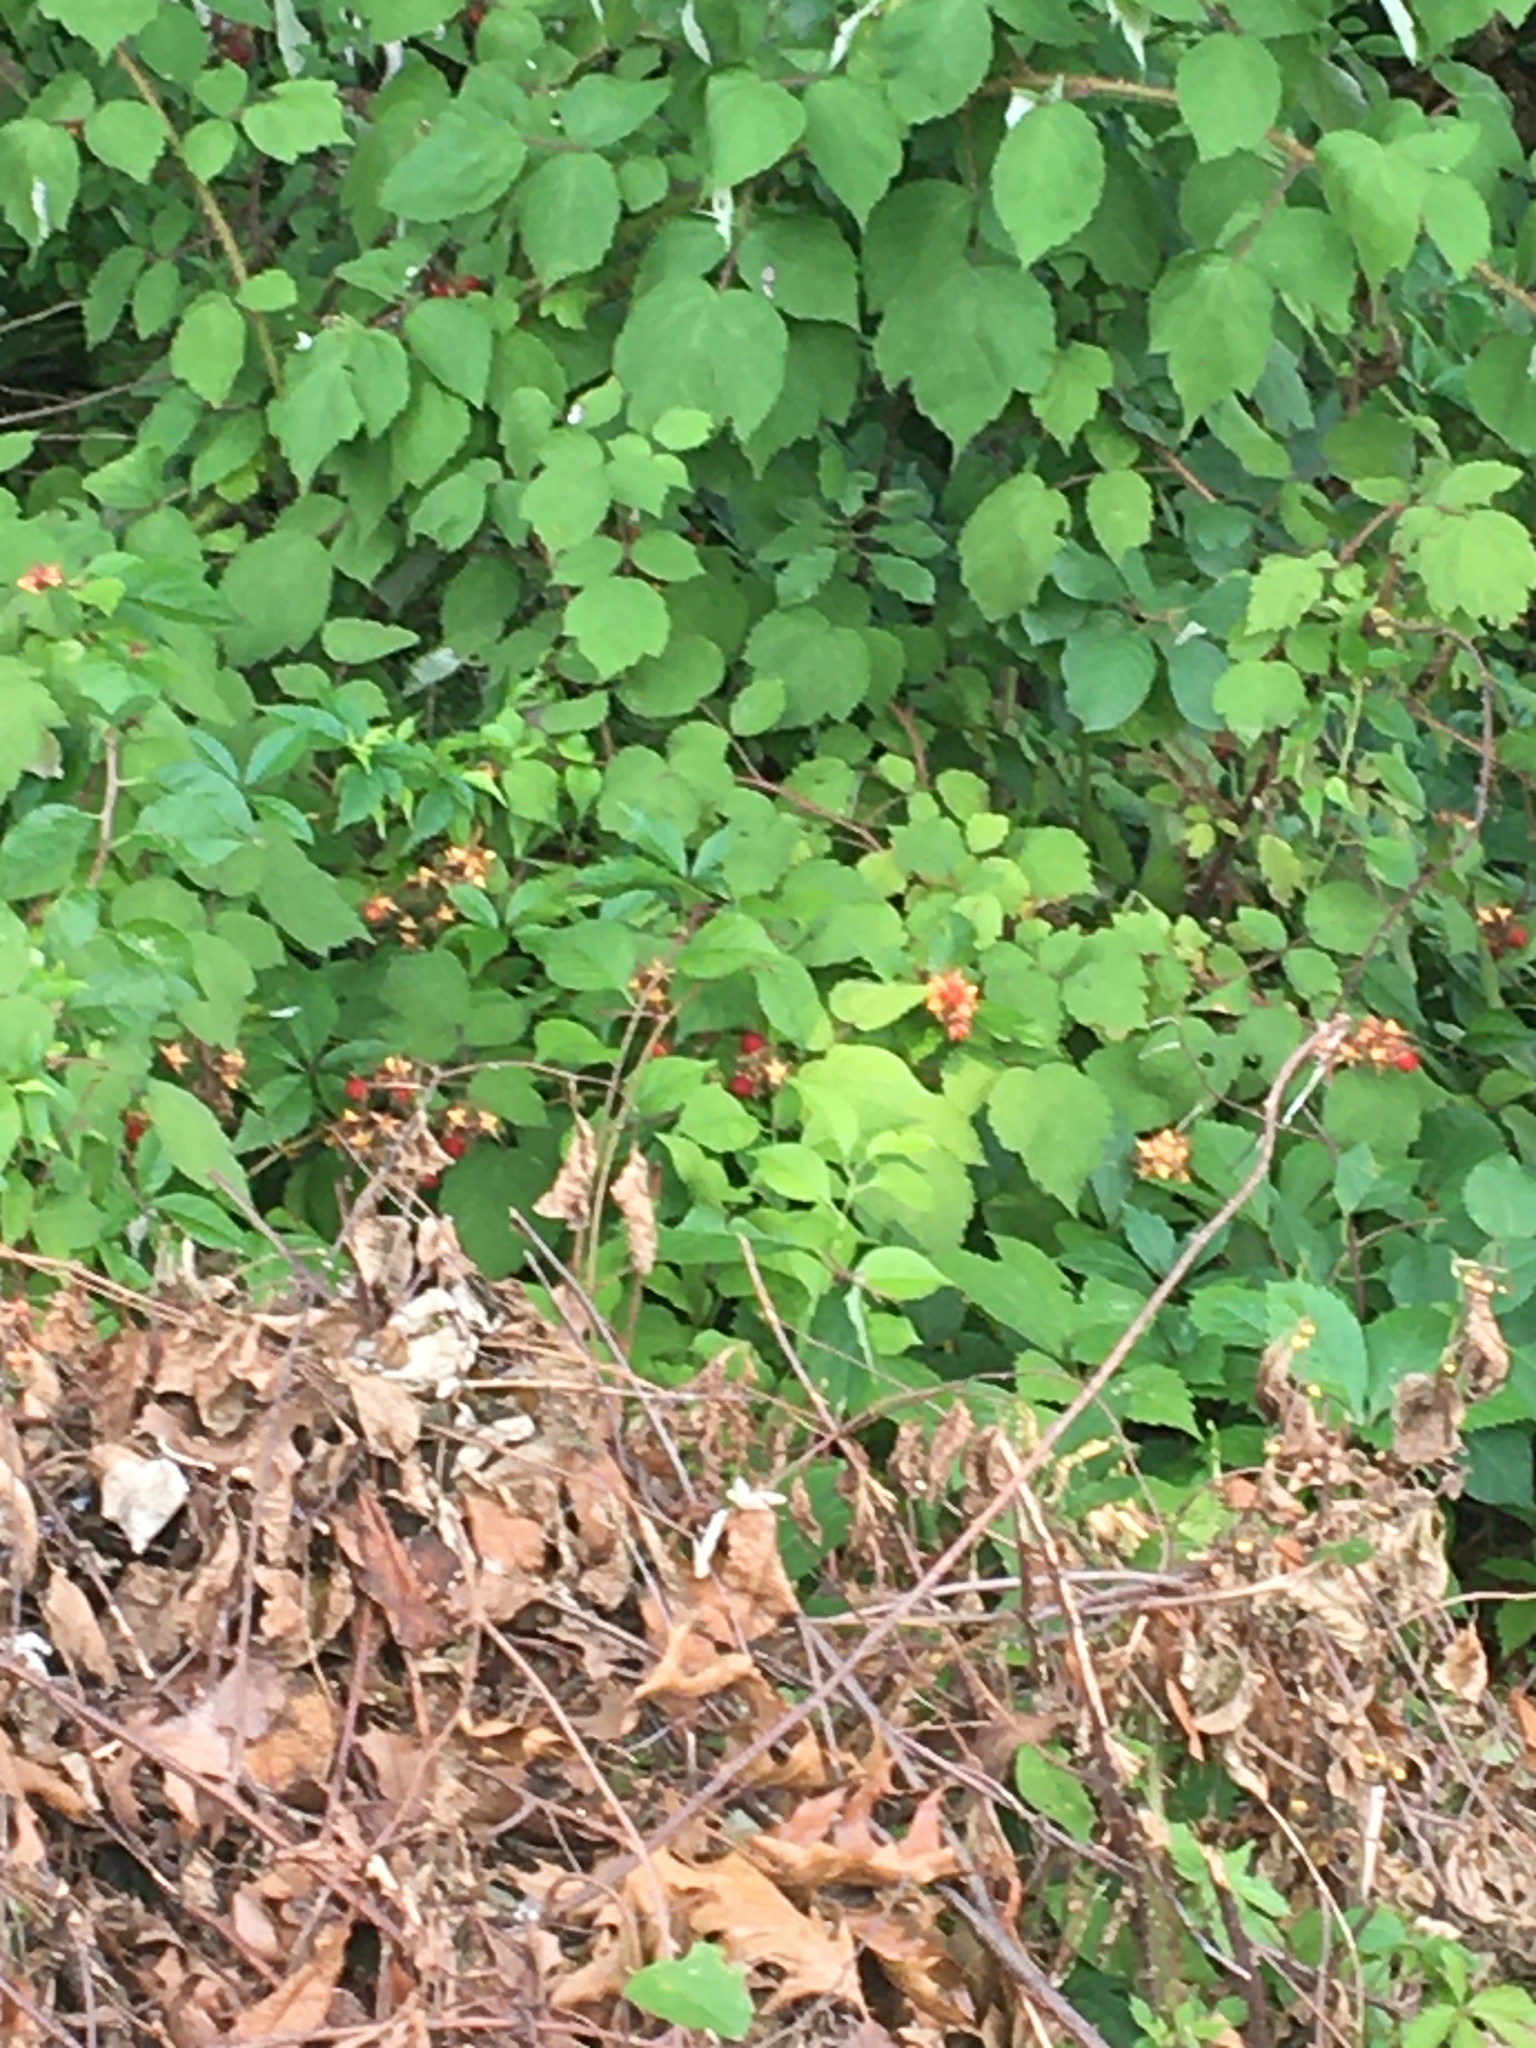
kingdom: Plantae
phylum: Tracheophyta
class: Magnoliopsida
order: Rosales
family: Rosaceae
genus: Rubus
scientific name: Rubus phoenicolasius
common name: Japanese wineberry
